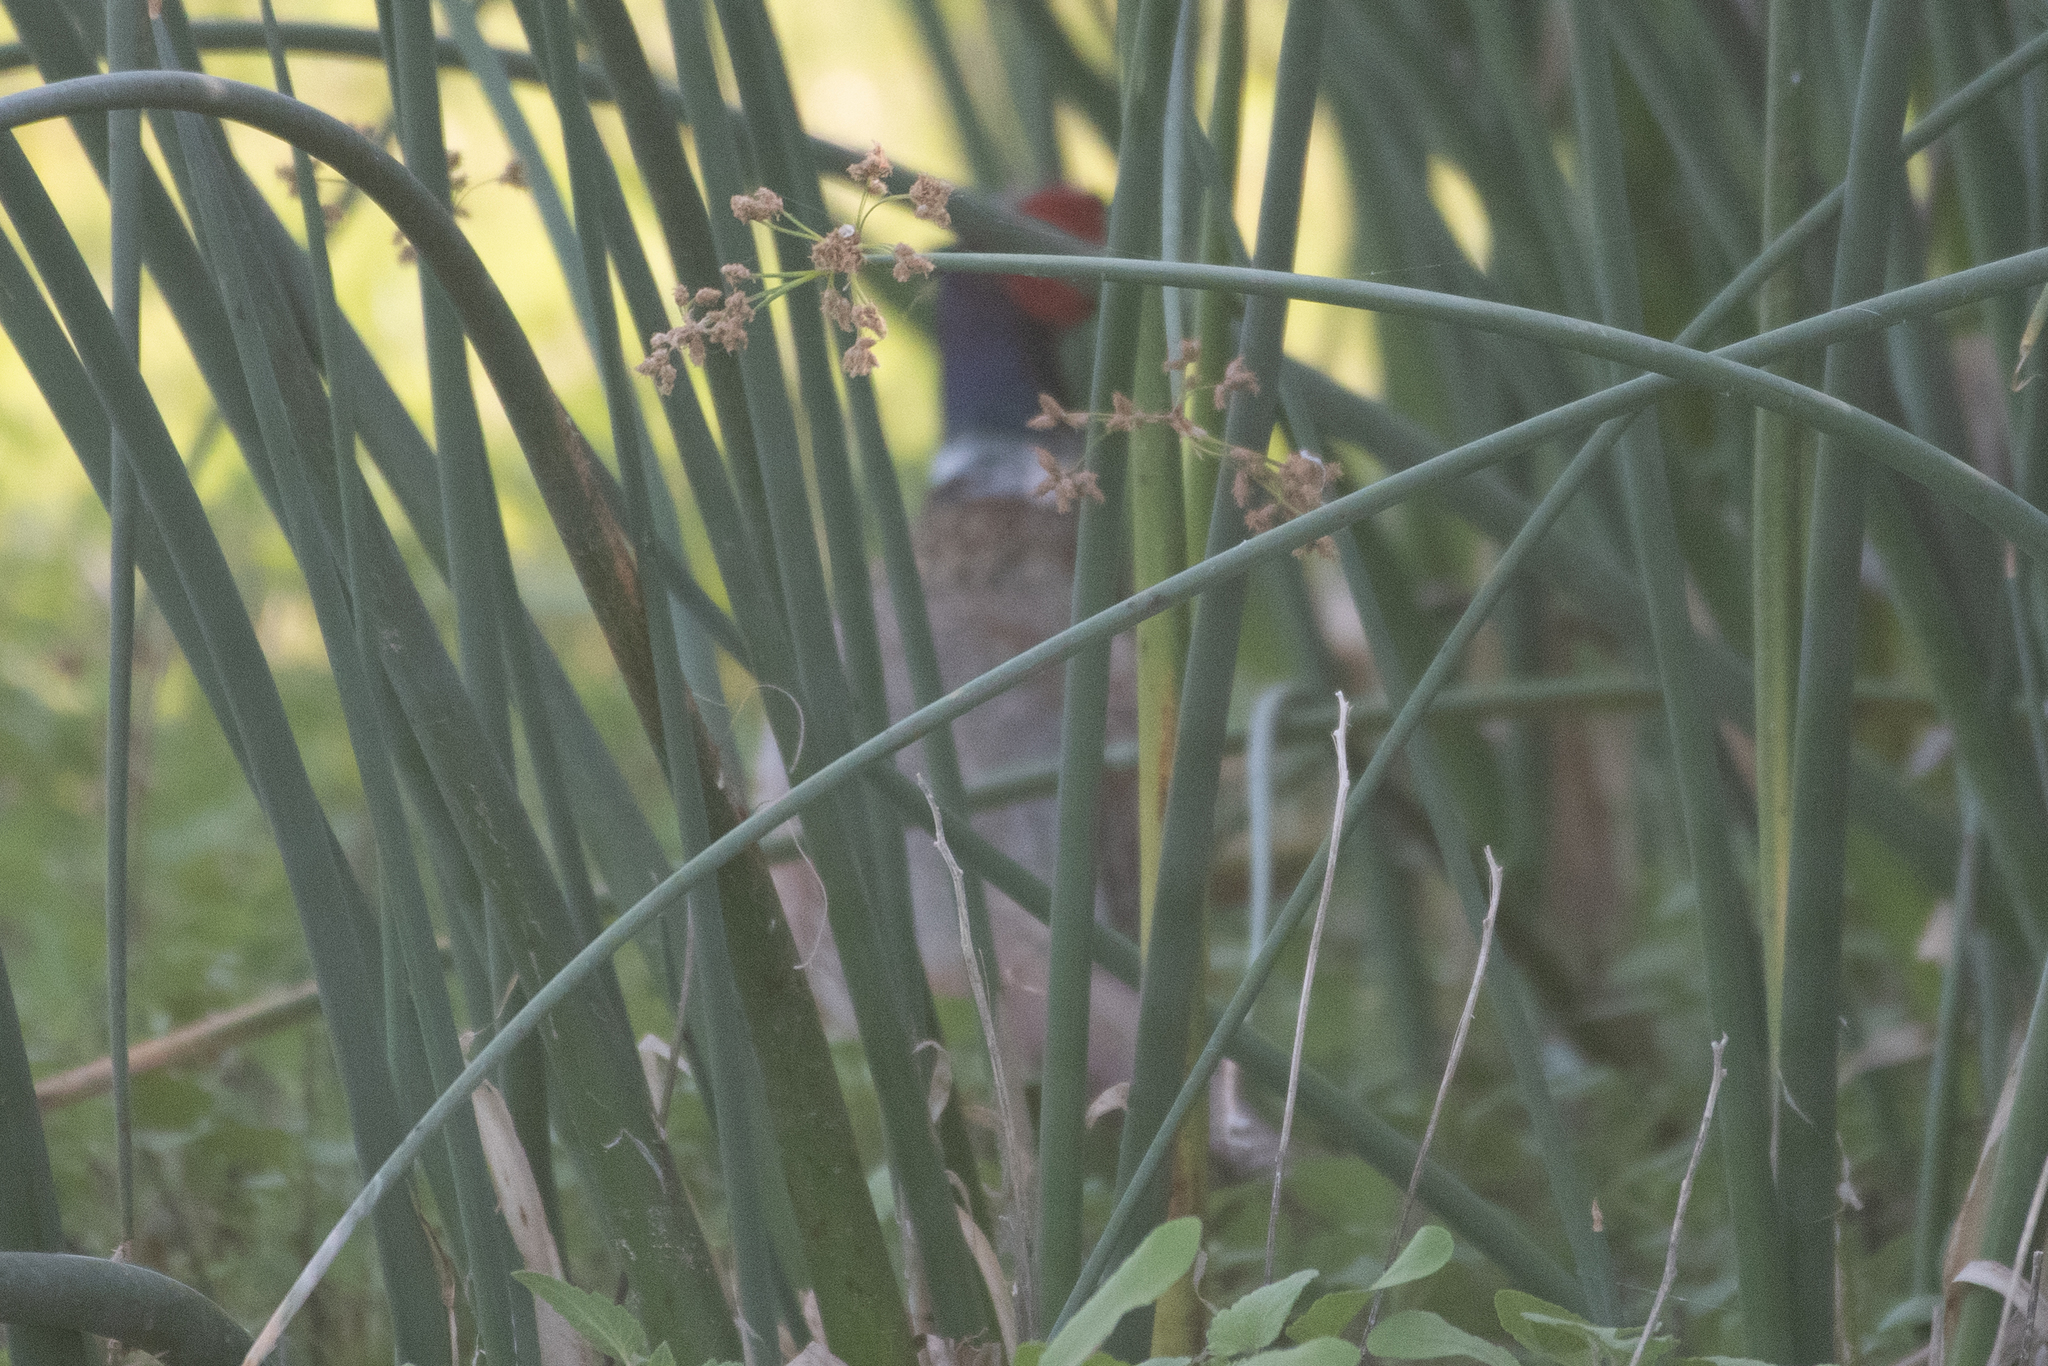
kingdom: Animalia
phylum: Chordata
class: Aves
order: Galliformes
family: Phasianidae
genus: Phasianus
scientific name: Phasianus colchicus
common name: Common pheasant
